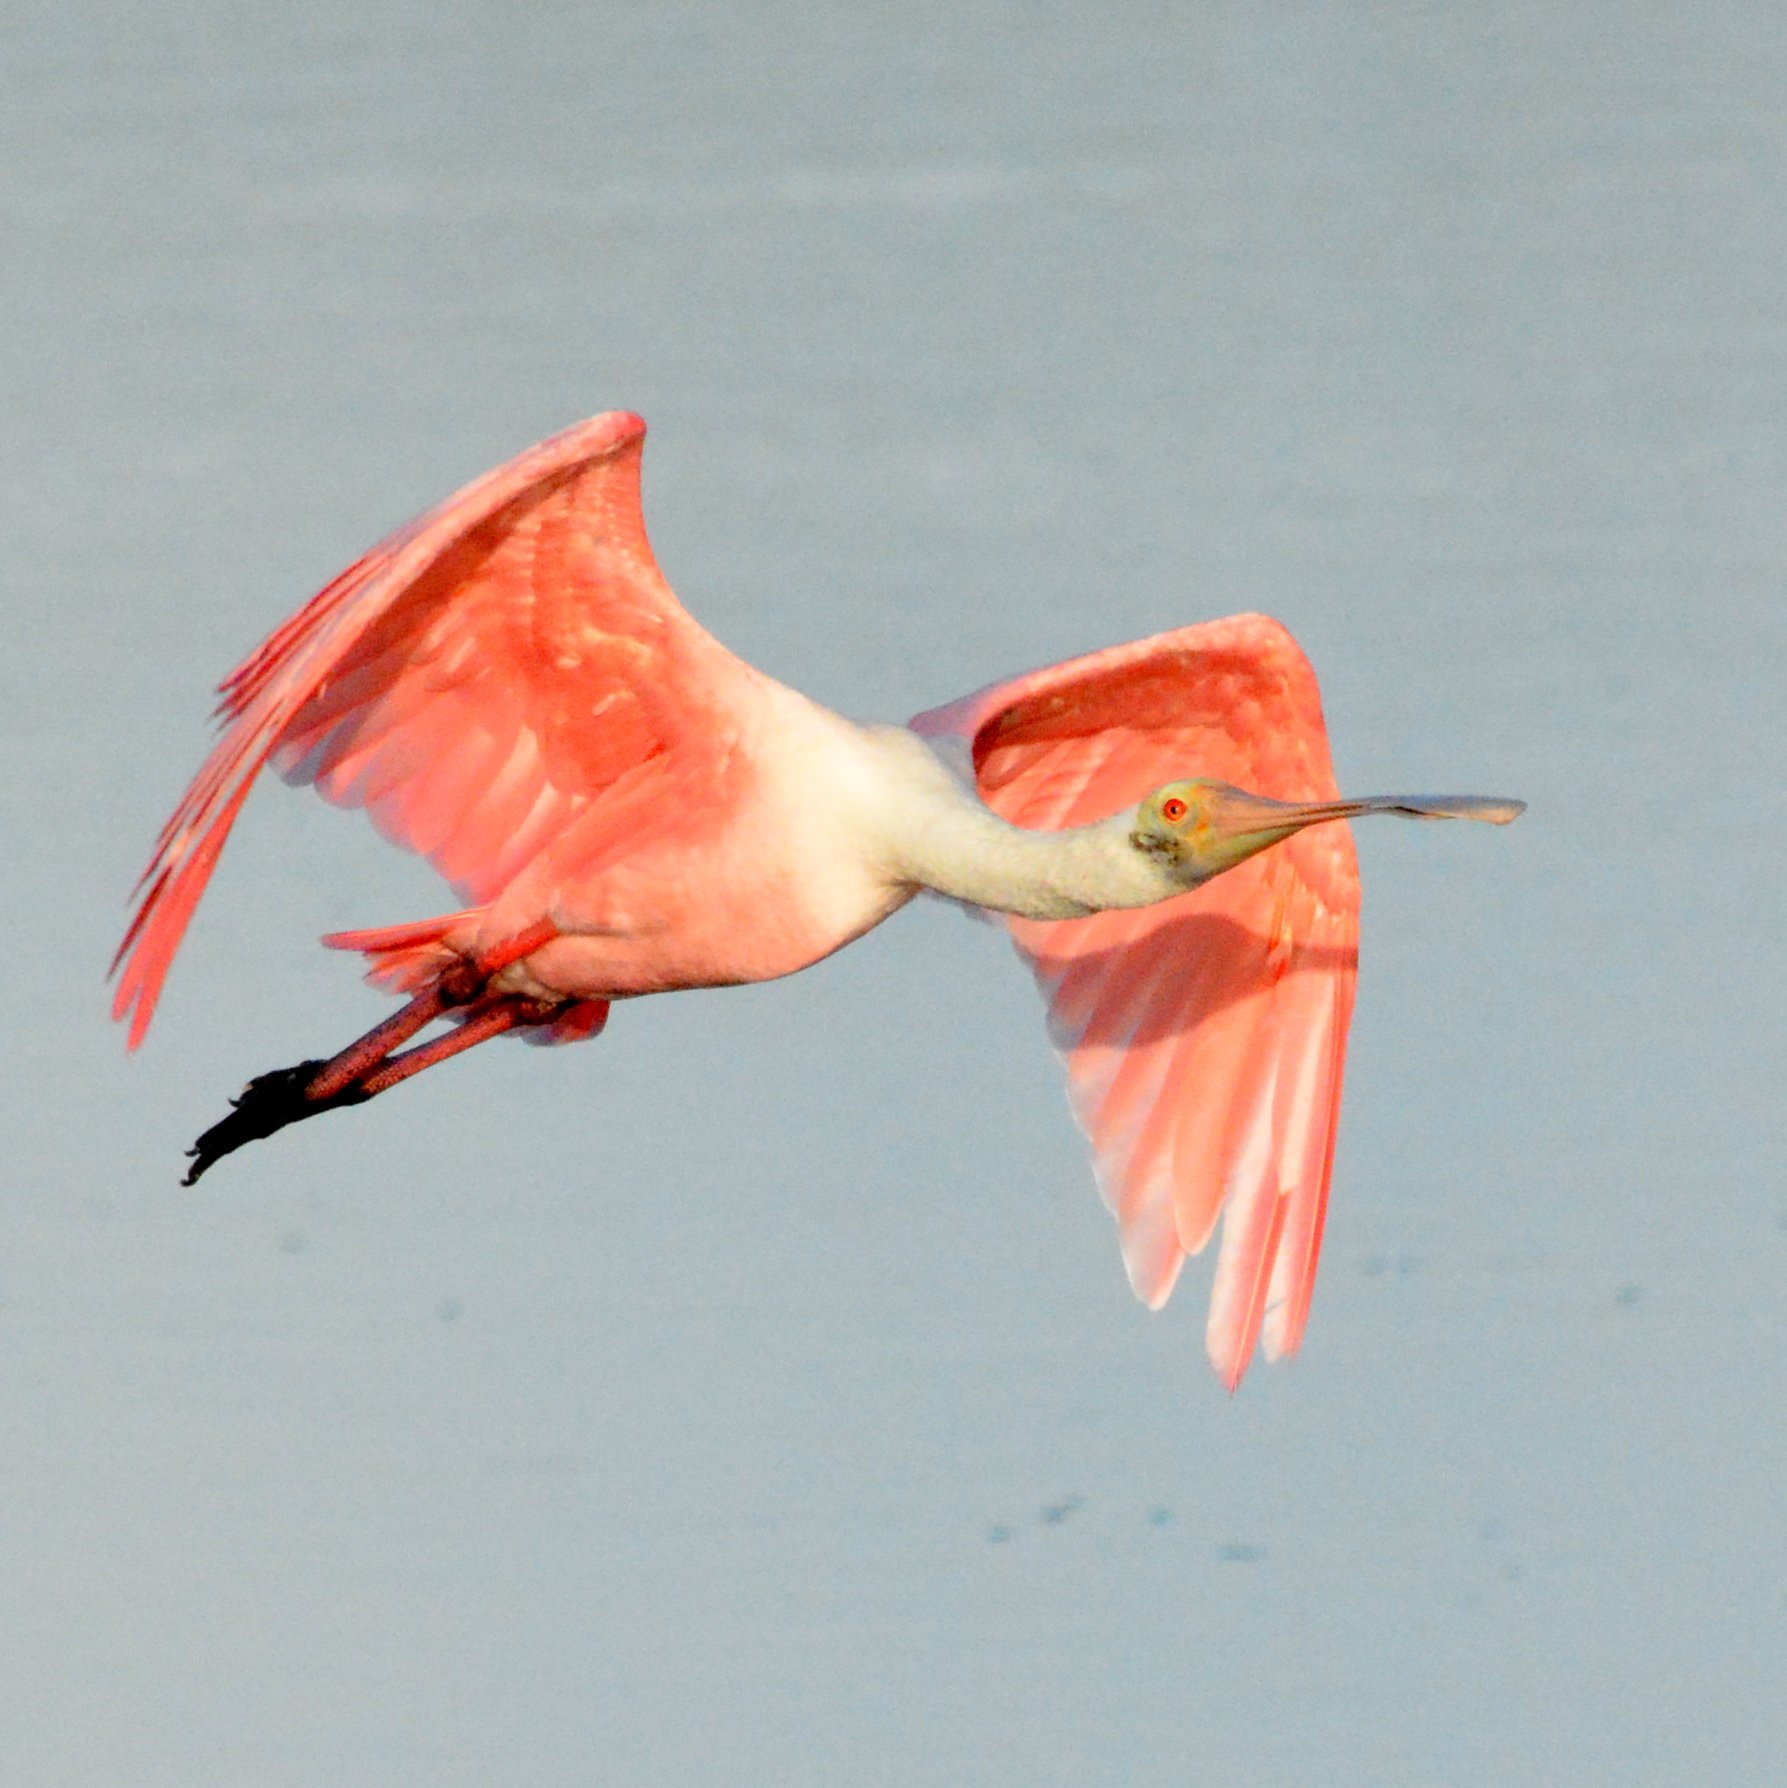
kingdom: Animalia
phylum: Chordata
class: Aves
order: Pelecaniformes
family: Threskiornithidae
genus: Platalea
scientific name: Platalea ajaja
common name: Roseate spoonbill
